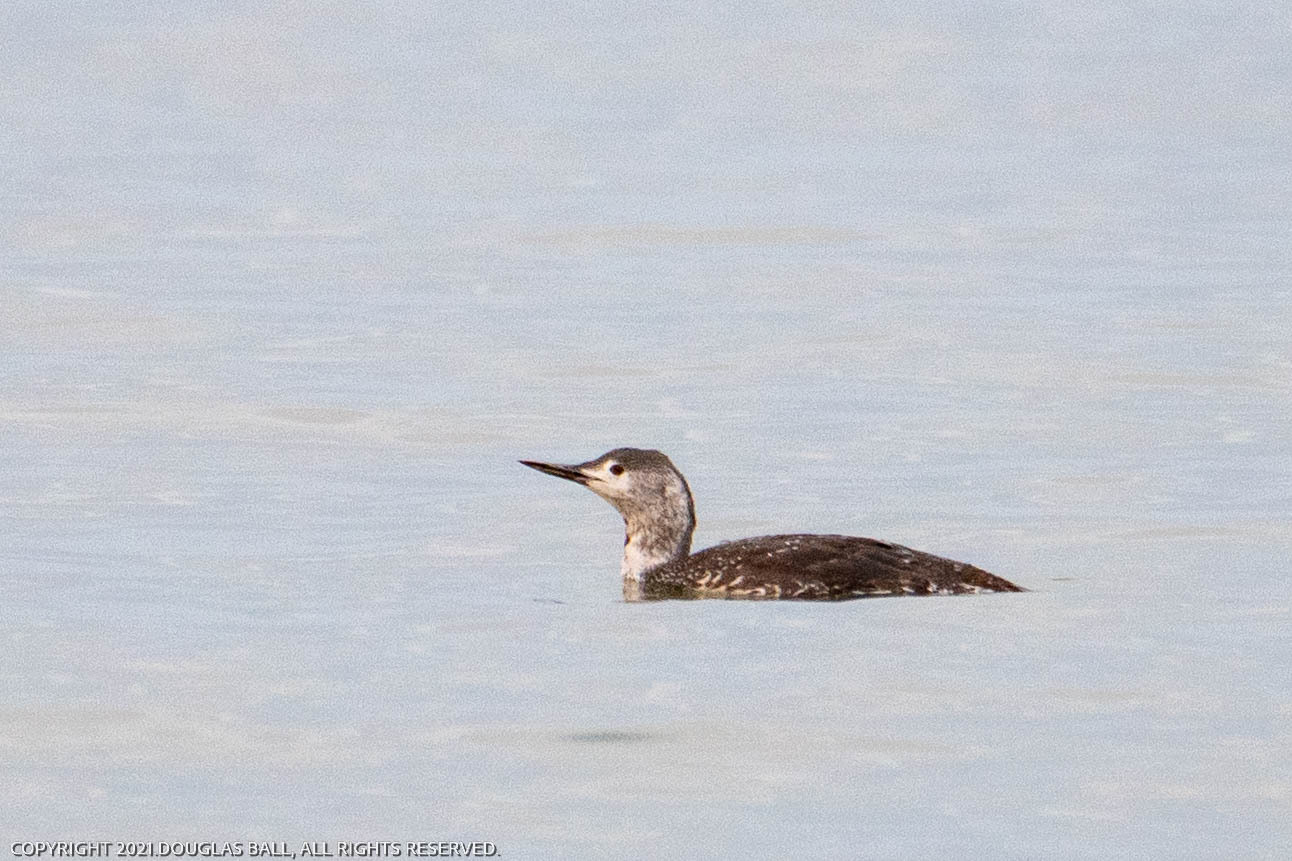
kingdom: Animalia
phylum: Chordata
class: Aves
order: Gaviiformes
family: Gaviidae
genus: Gavia
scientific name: Gavia stellata
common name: Red-throated loon
